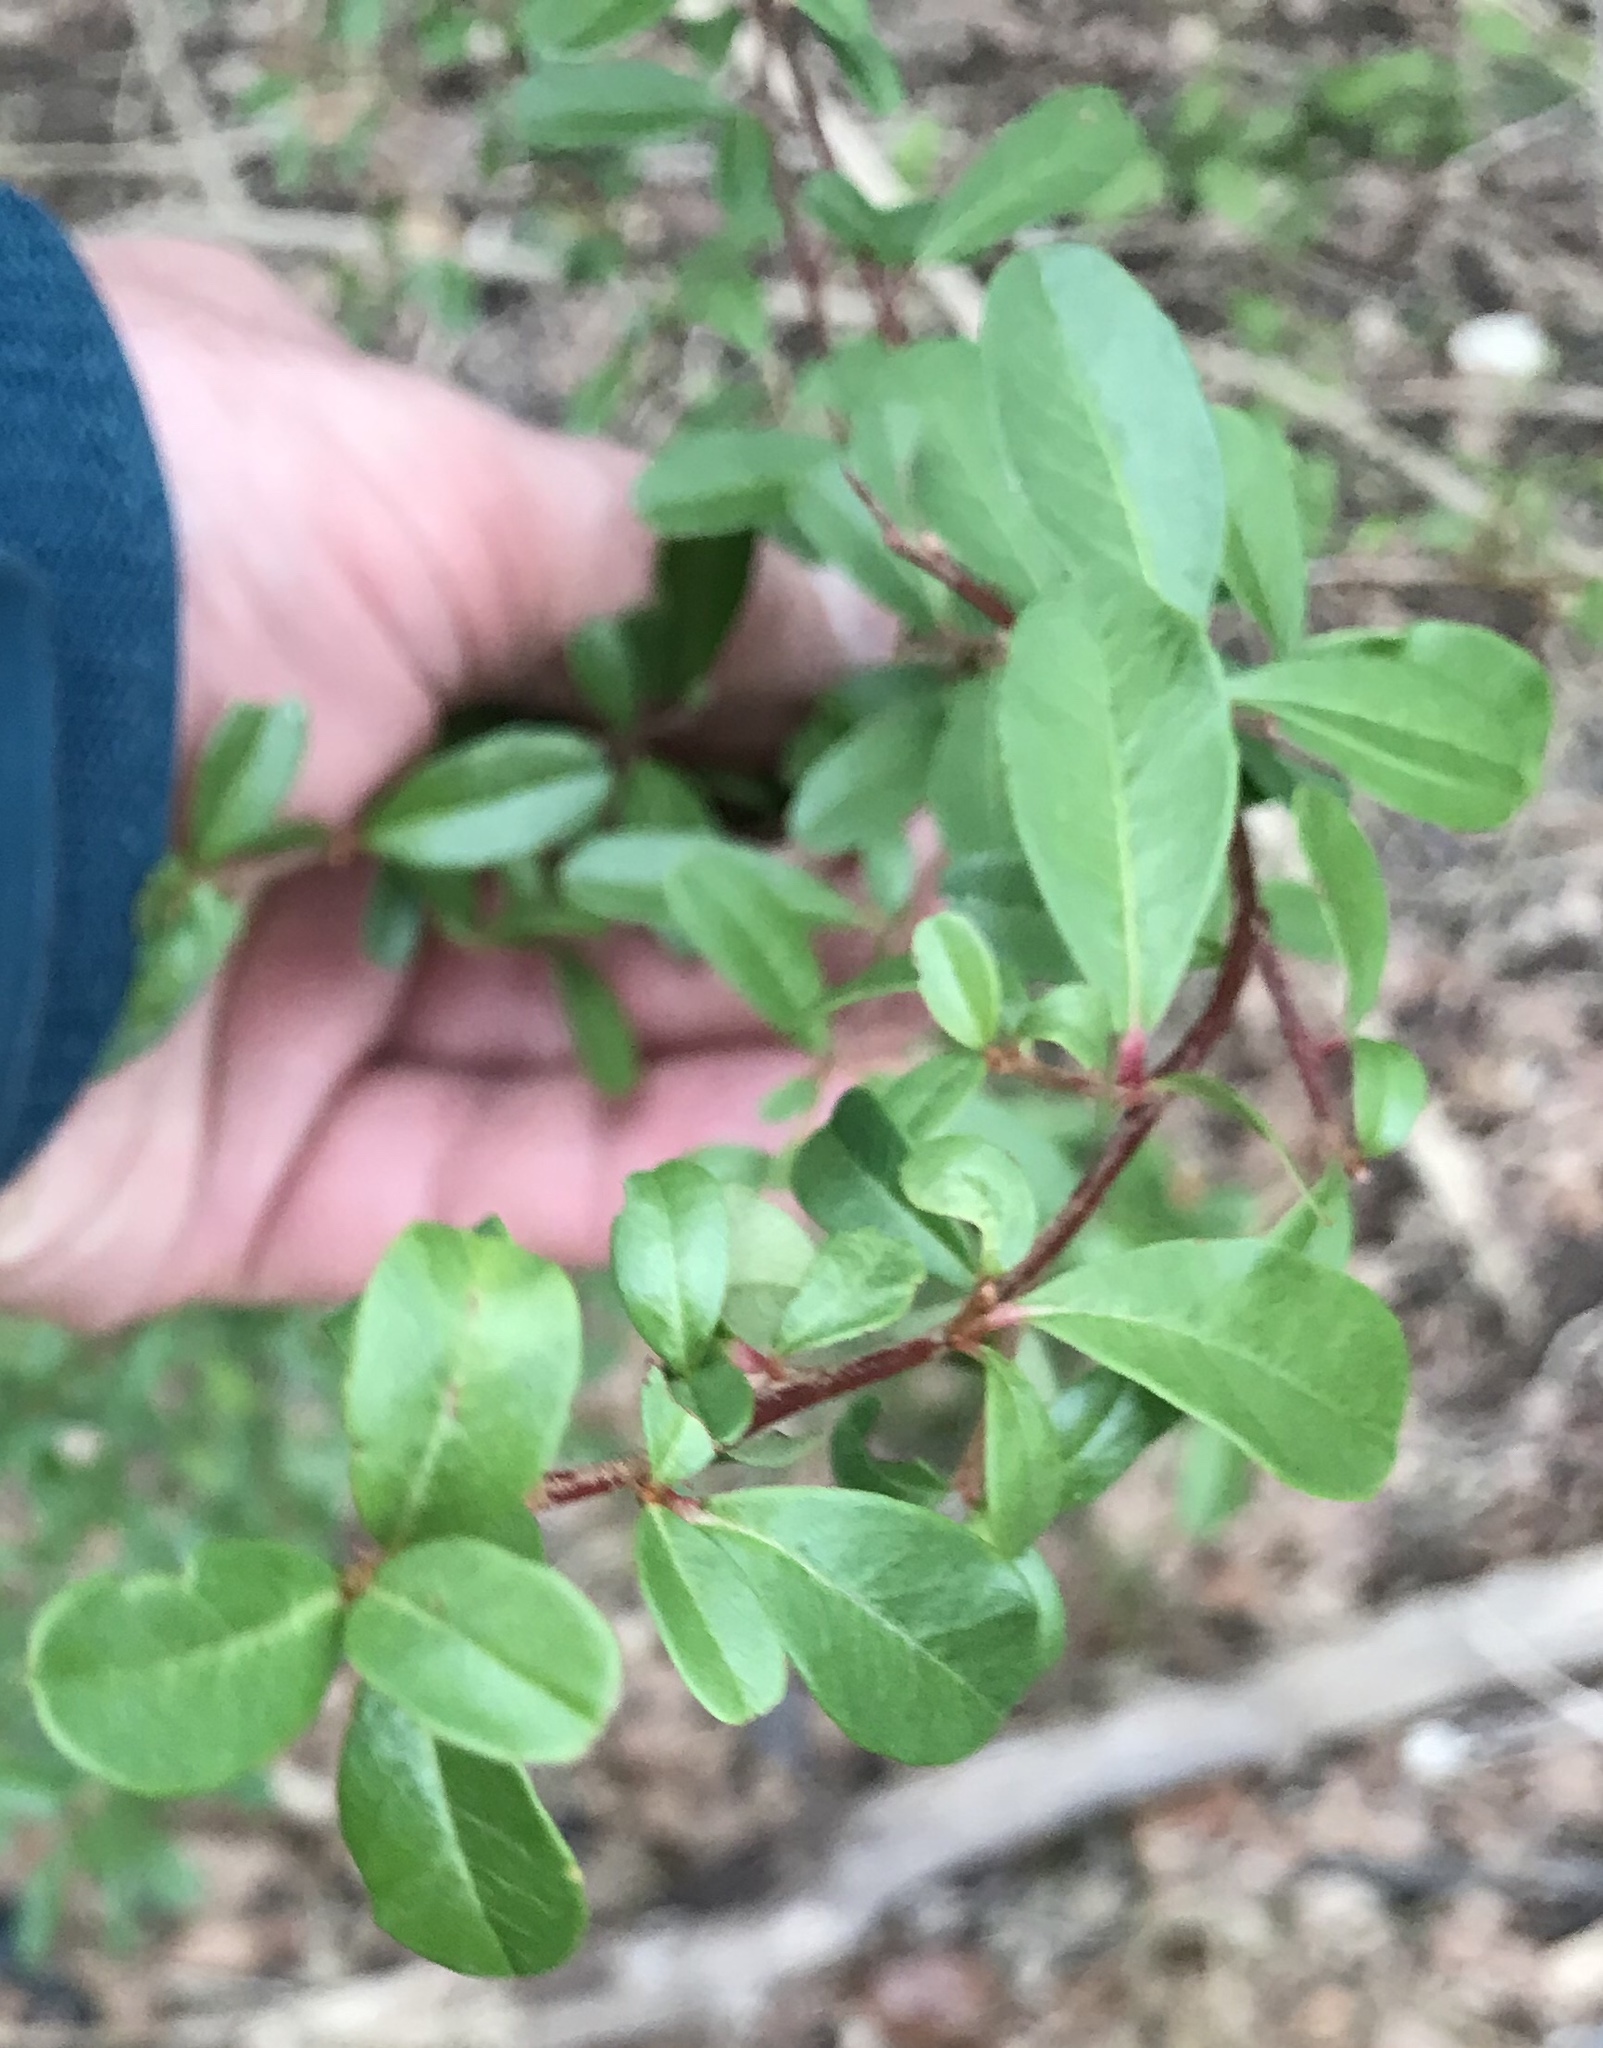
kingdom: Plantae
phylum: Tracheophyta
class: Magnoliopsida
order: Rosales
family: Rosaceae
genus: Pyracantha
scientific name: Pyracantha coccinea
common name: Firethorn
